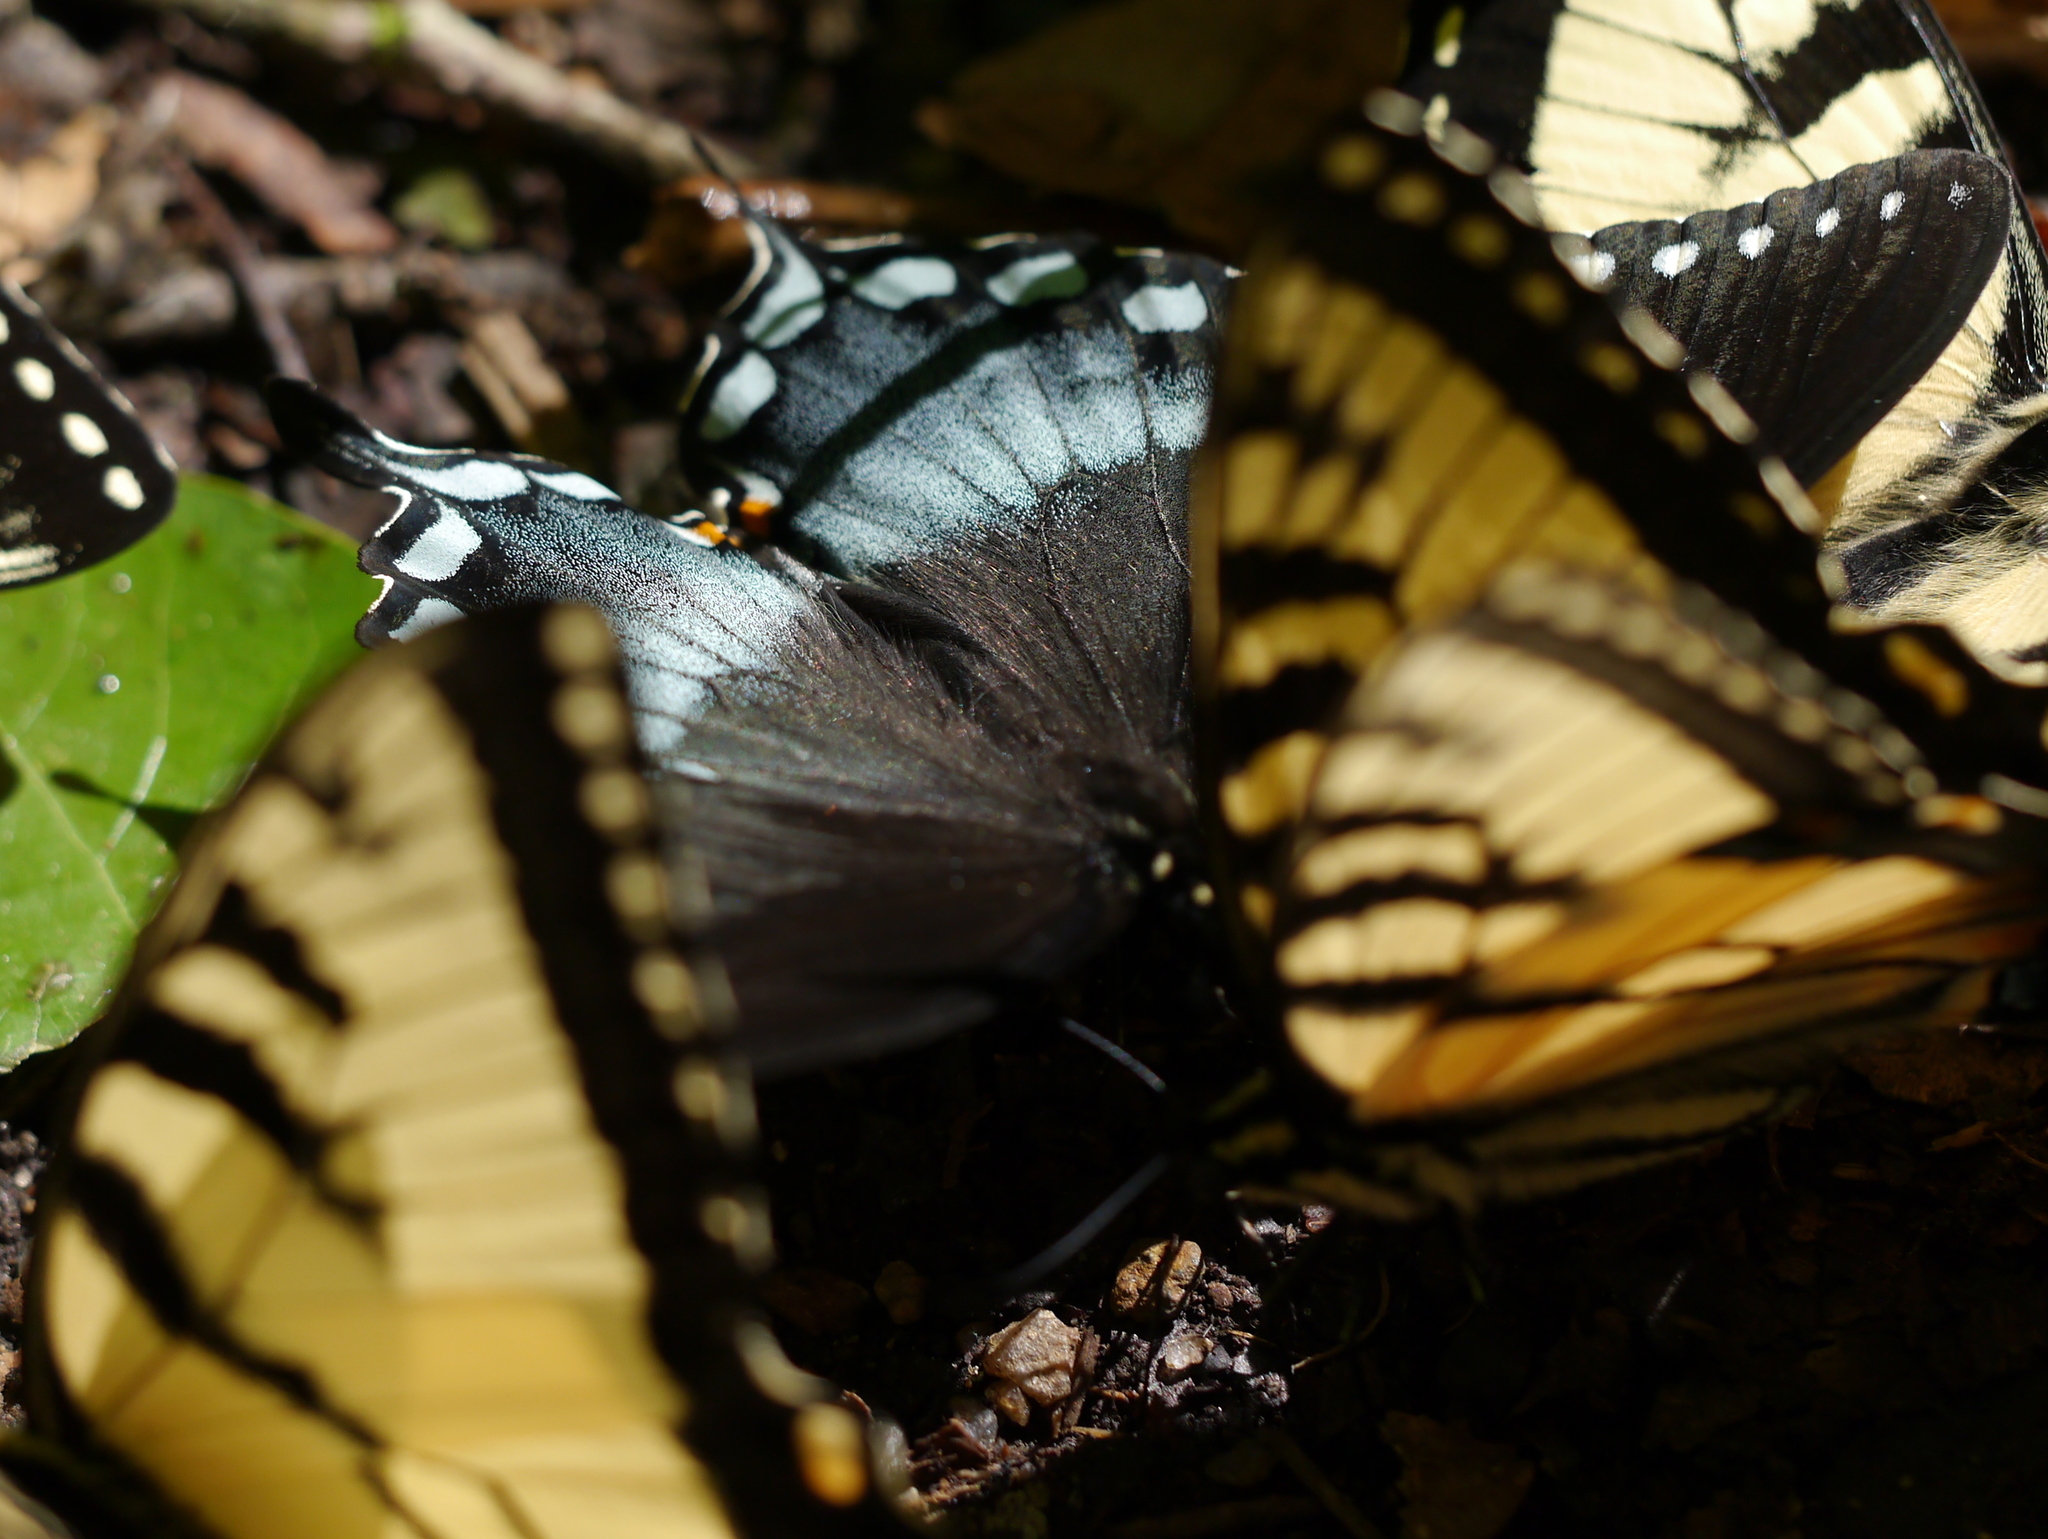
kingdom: Animalia
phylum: Arthropoda
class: Insecta
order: Lepidoptera
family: Papilionidae
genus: Papilio
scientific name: Papilio troilus
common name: Spicebush swallowtail
